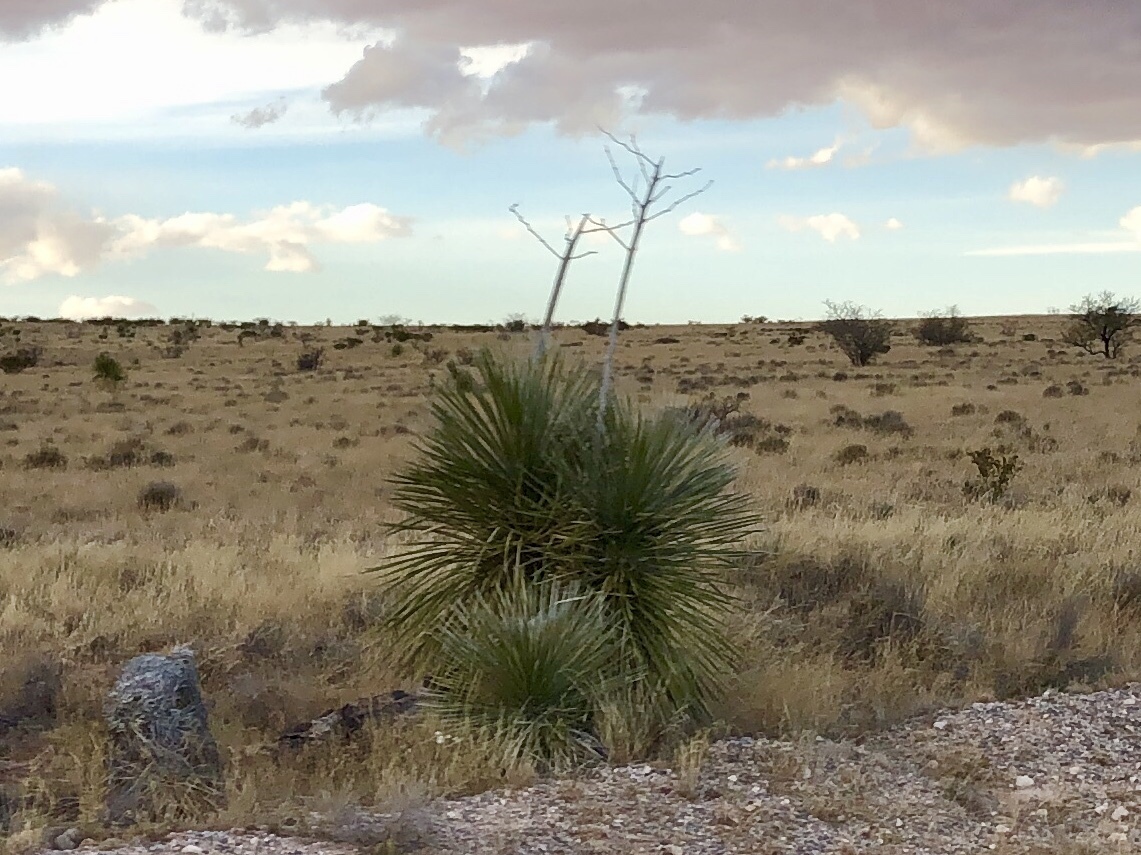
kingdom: Plantae
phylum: Tracheophyta
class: Liliopsida
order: Asparagales
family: Asparagaceae
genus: Yucca
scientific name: Yucca elata
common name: Palmella
